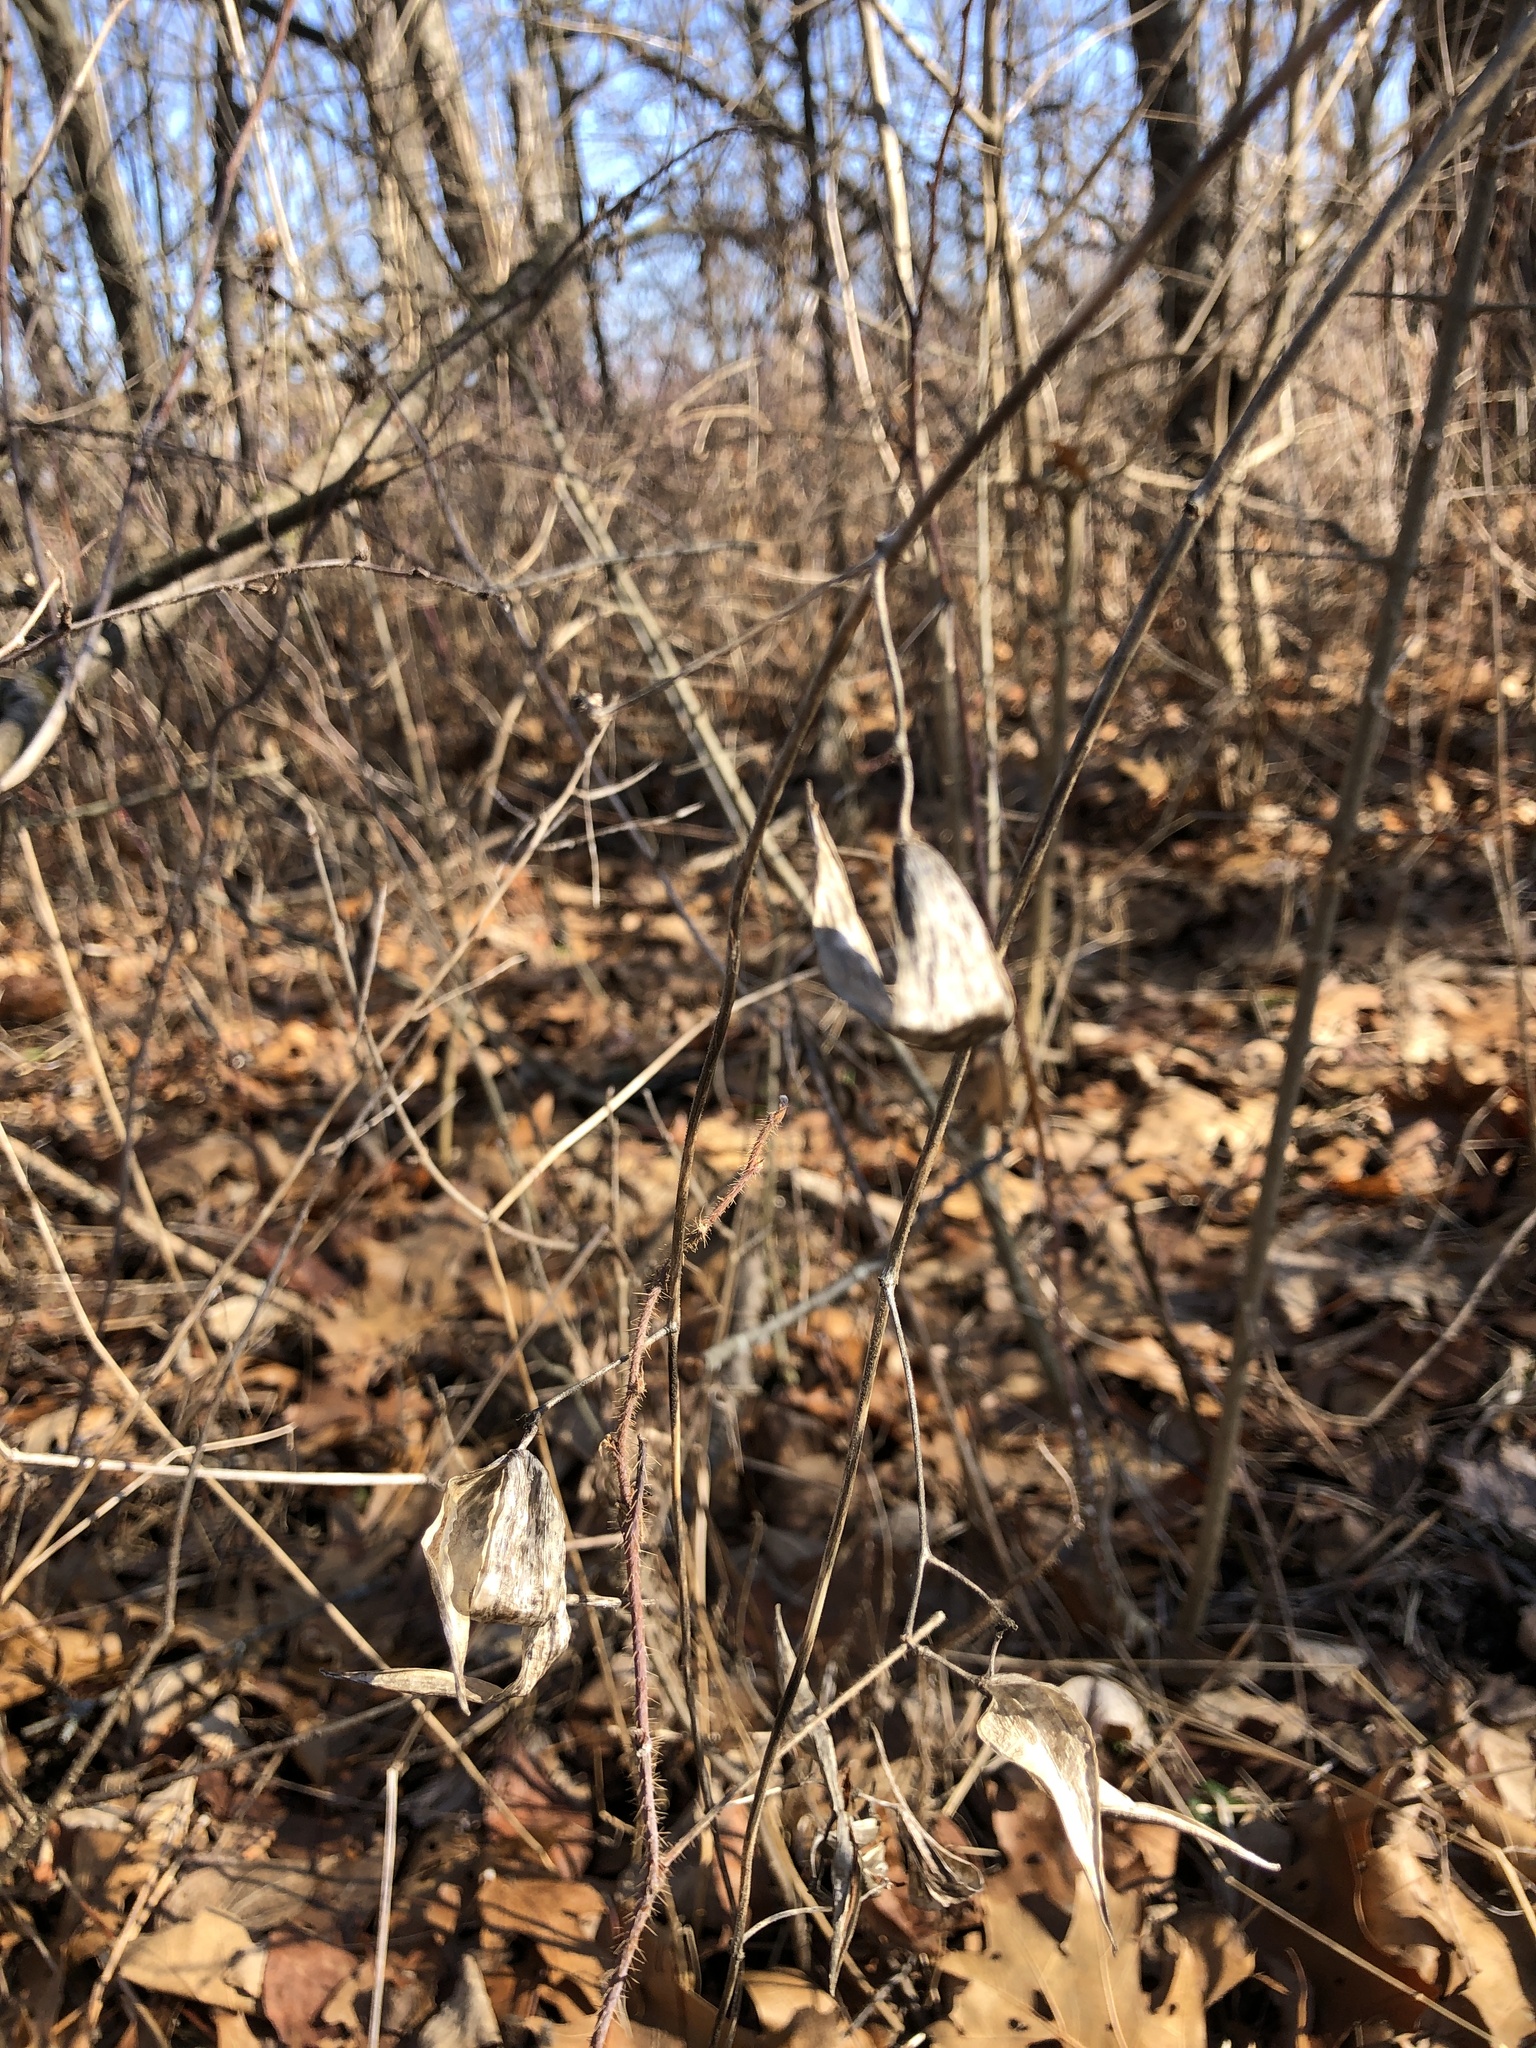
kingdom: Plantae
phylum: Tracheophyta
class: Magnoliopsida
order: Gentianales
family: Apocynaceae
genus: Vincetoxicum
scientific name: Vincetoxicum rossicum
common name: Dog-strangling vine
